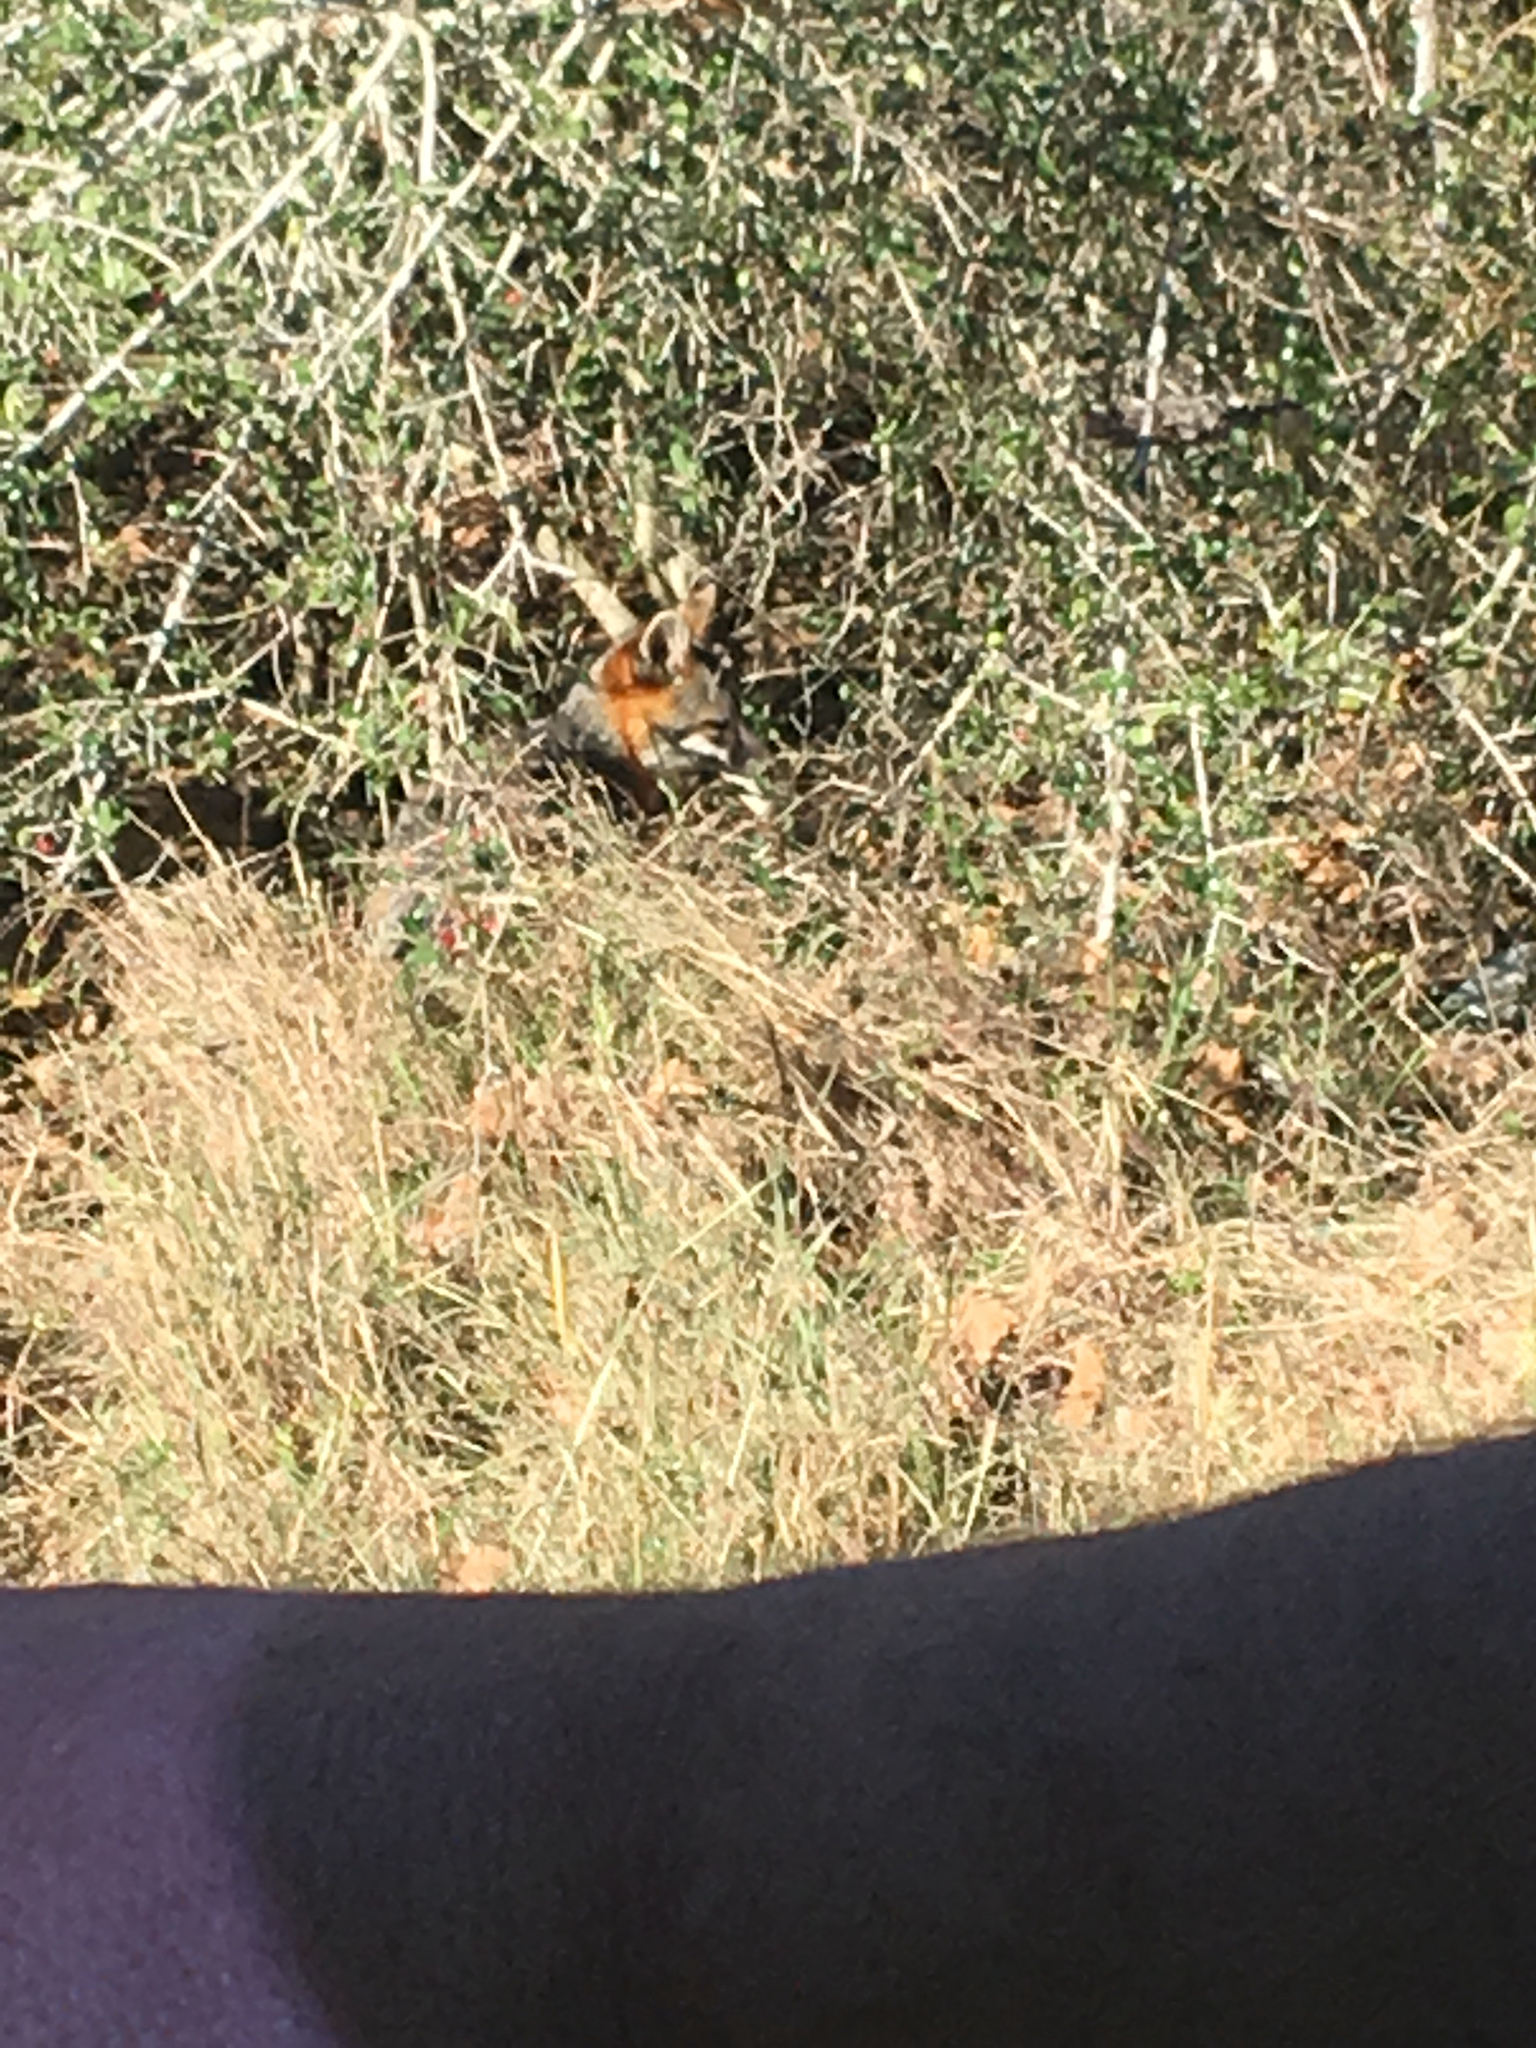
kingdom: Animalia
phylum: Chordata
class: Mammalia
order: Carnivora
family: Canidae
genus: Urocyon
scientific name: Urocyon cinereoargenteus
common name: Gray fox
